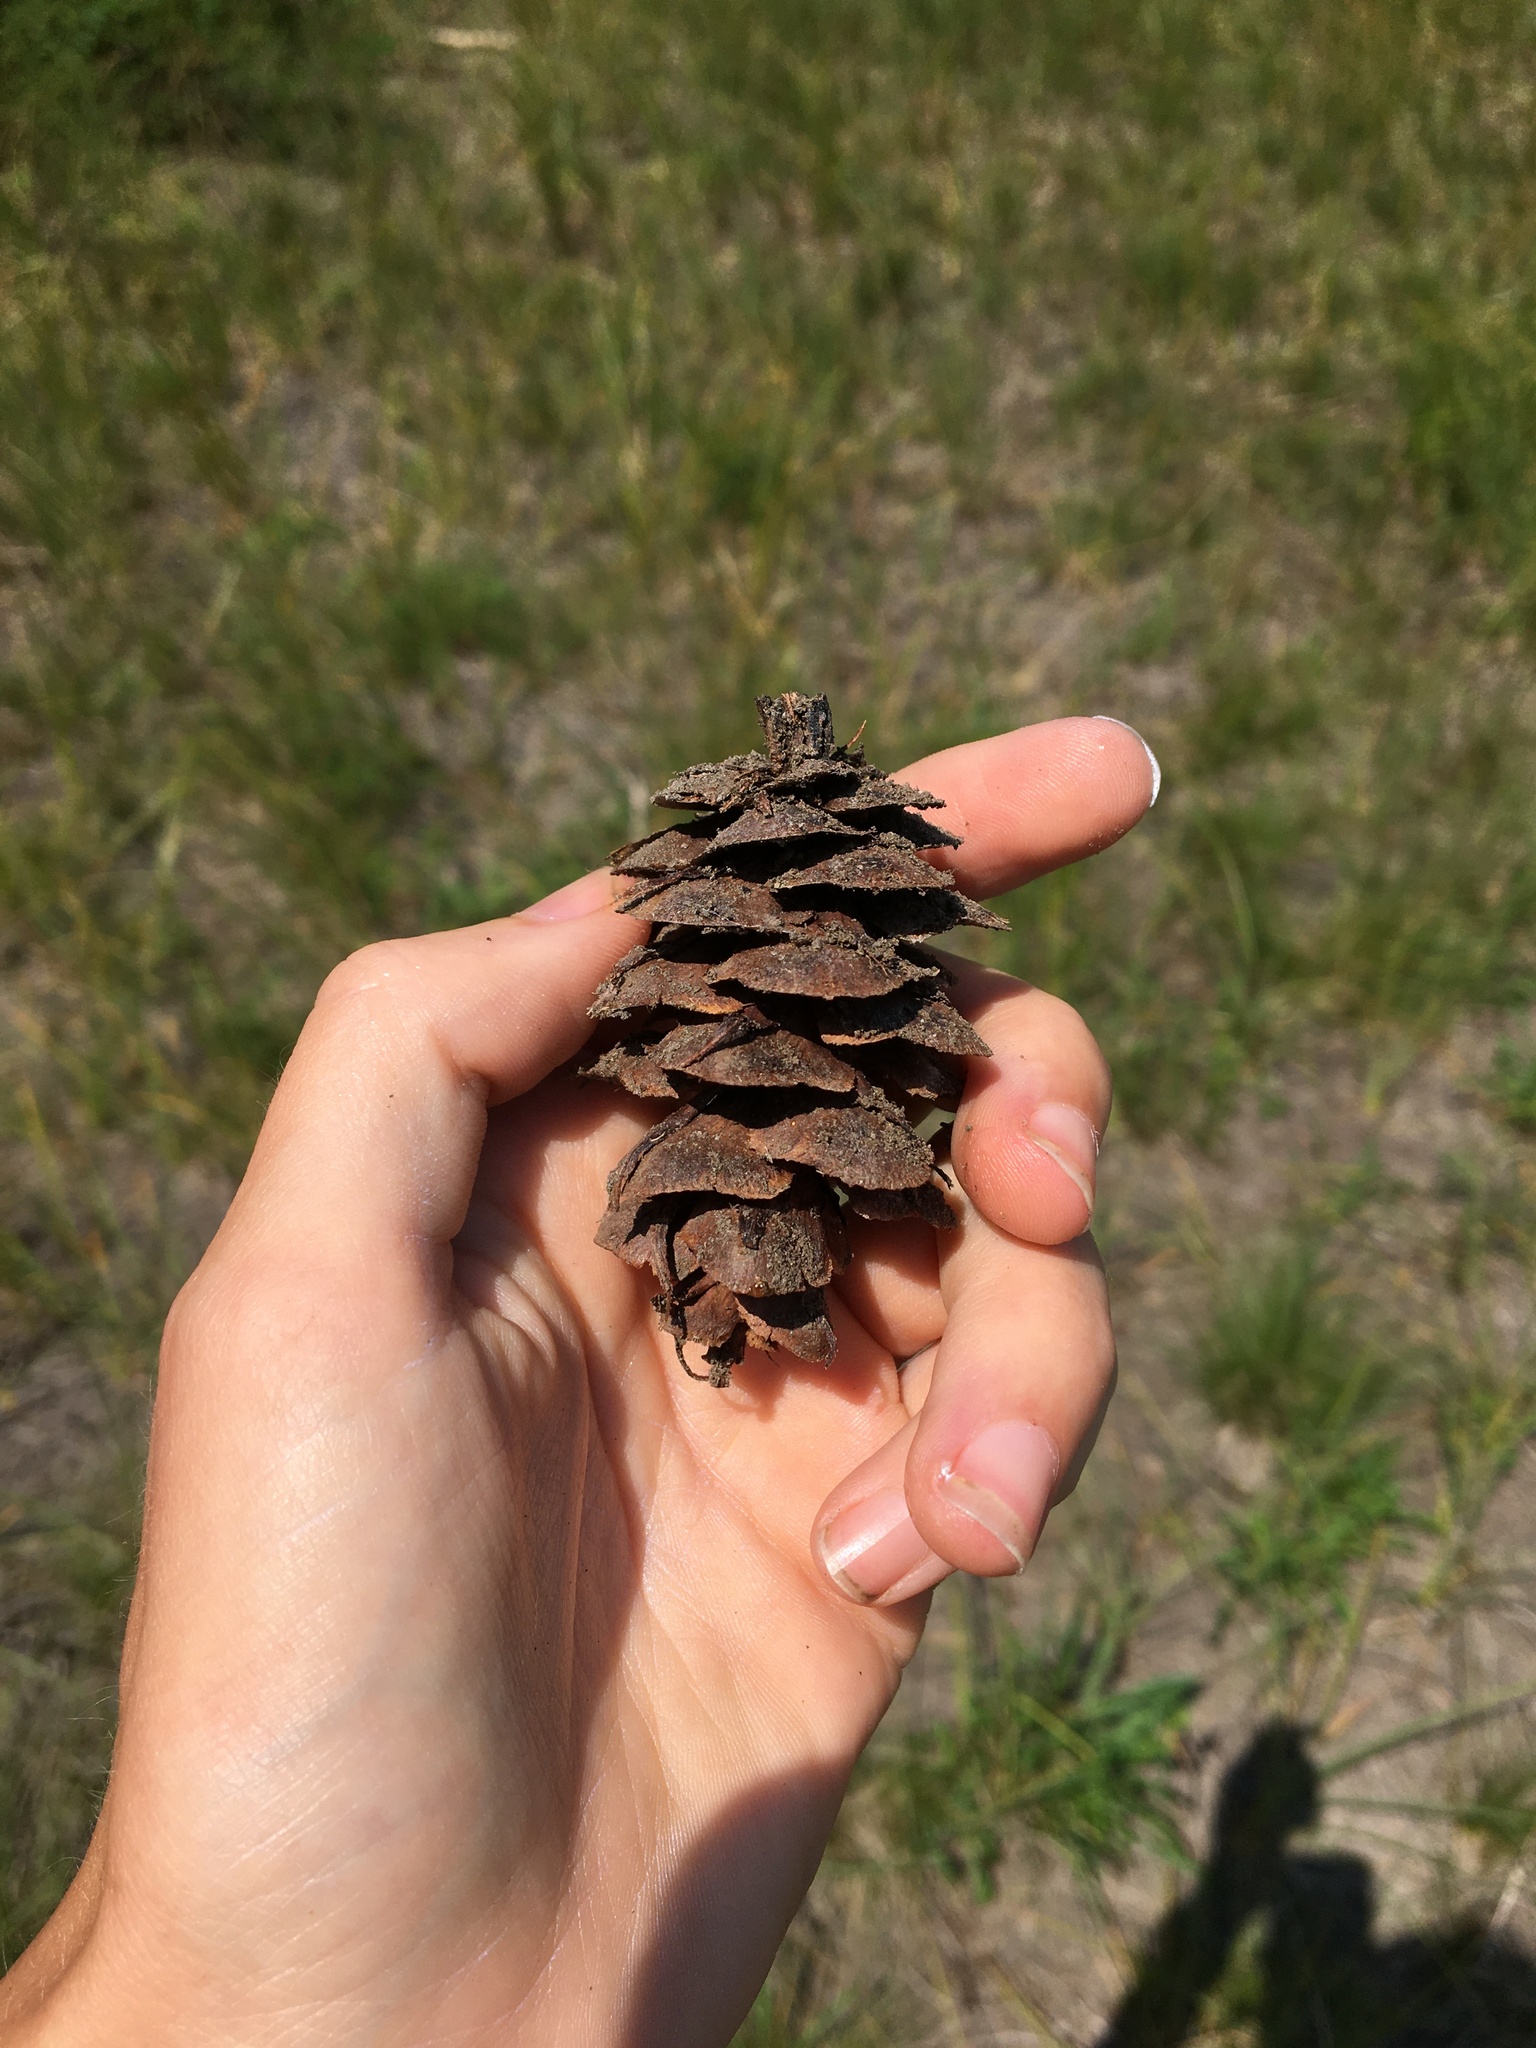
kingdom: Plantae
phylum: Tracheophyta
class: Pinopsida
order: Pinales
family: Pinaceae
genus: Pseudotsuga
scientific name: Pseudotsuga menziesii
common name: Douglas fir
